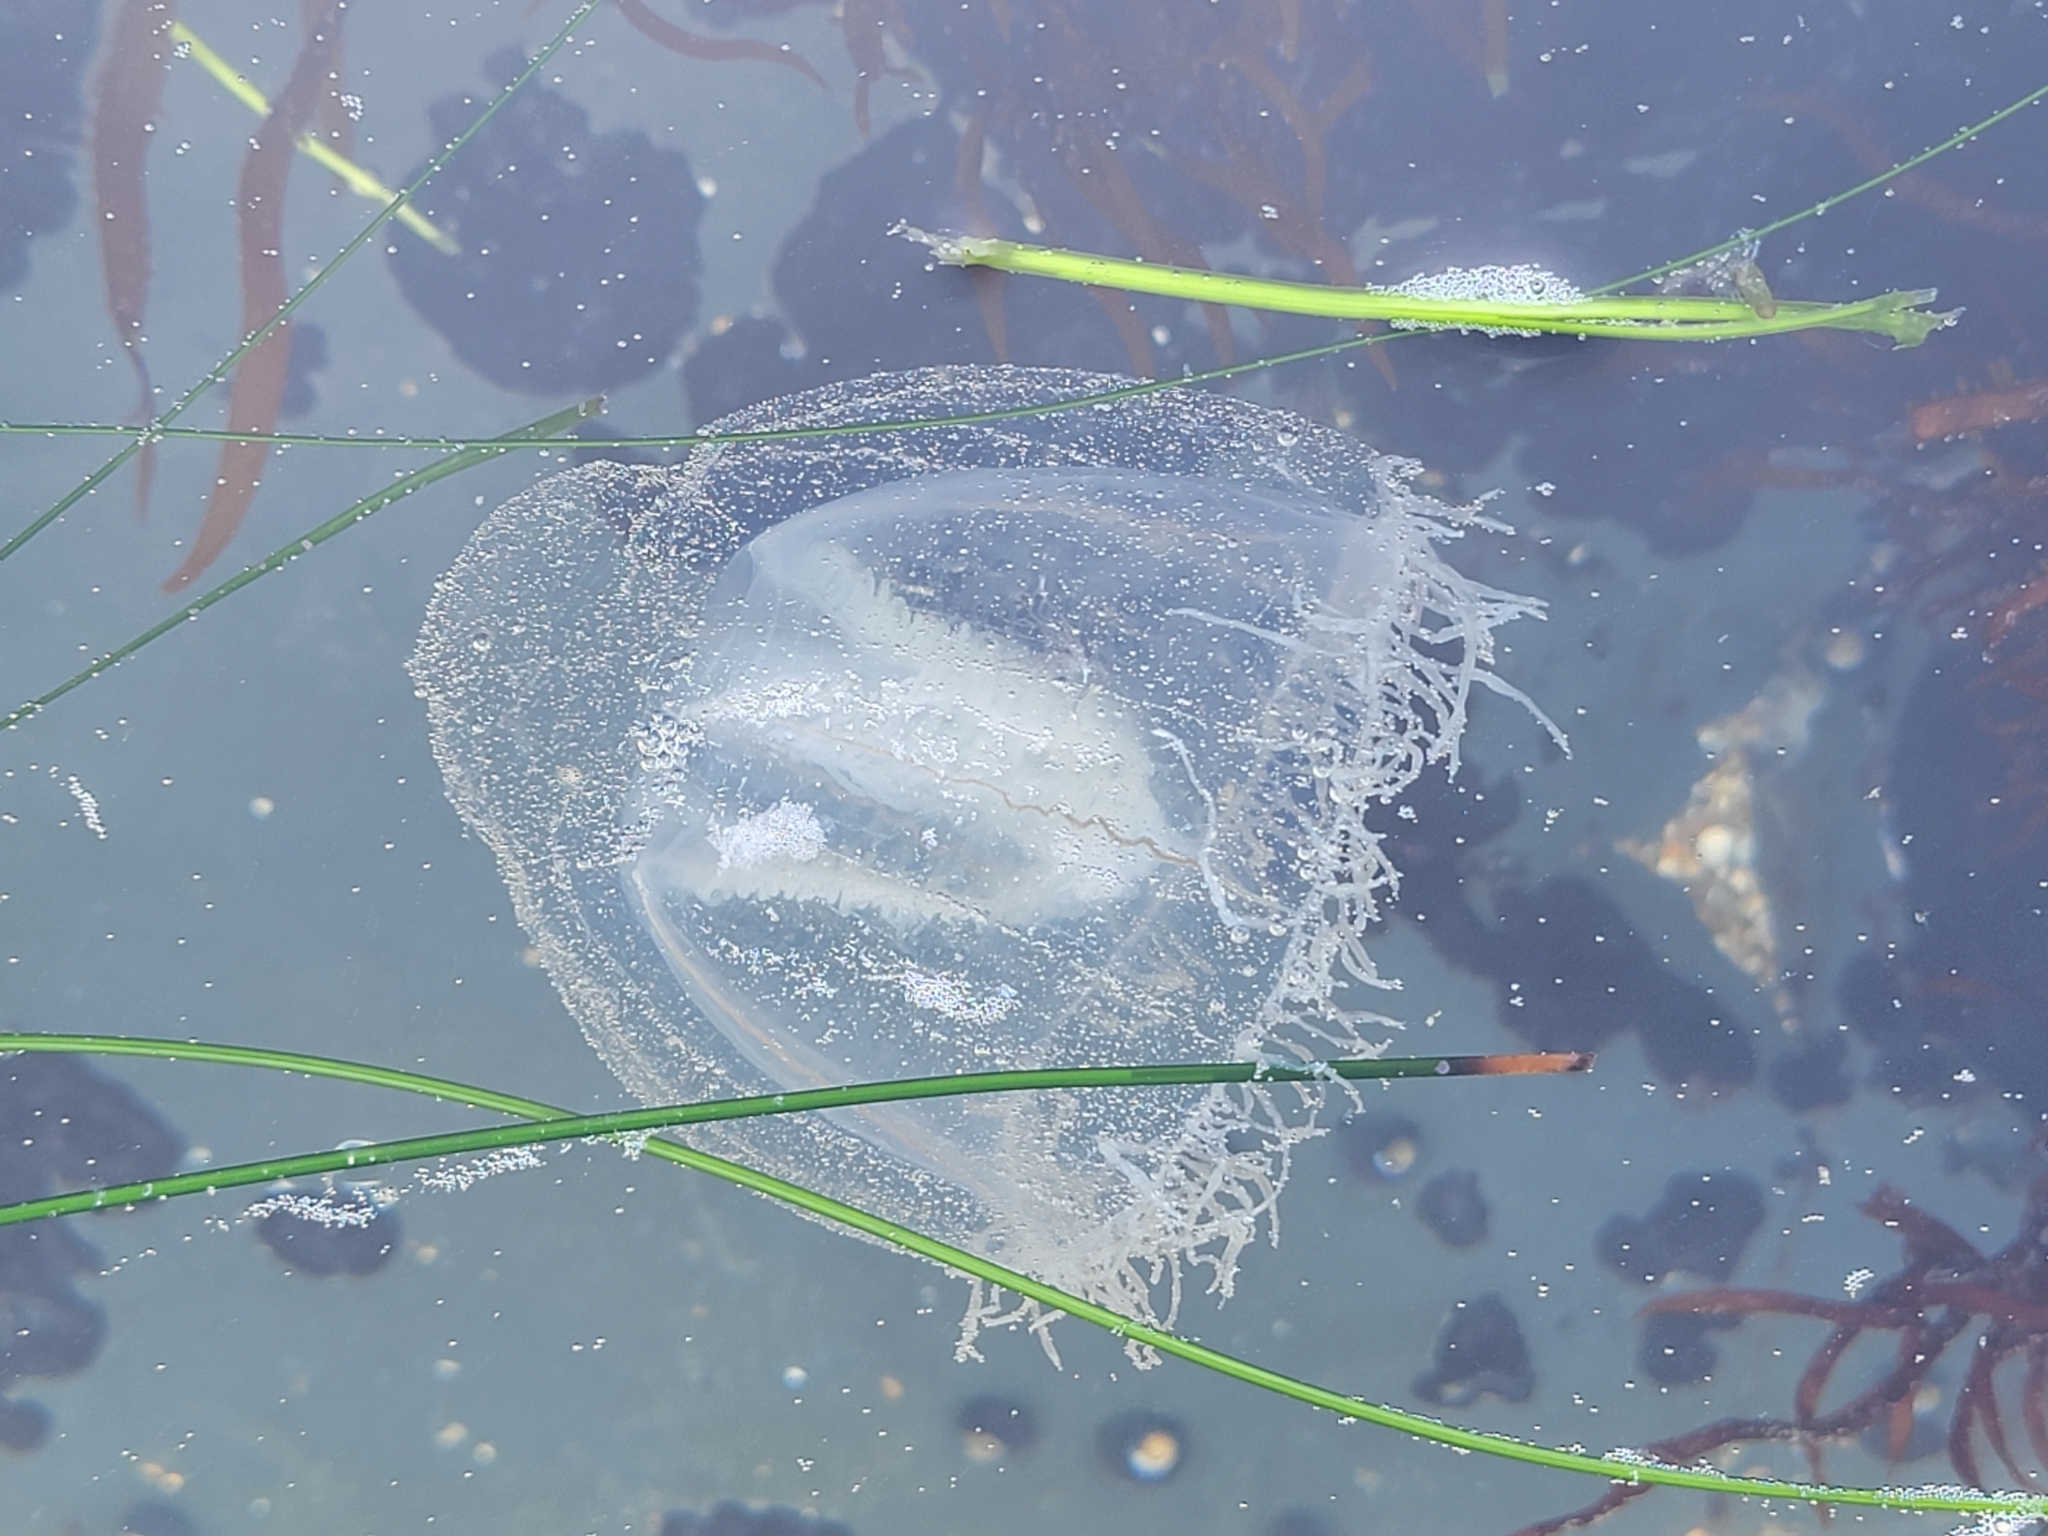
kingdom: Animalia
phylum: Cnidaria
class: Hydrozoa
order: Anthoathecata
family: Corynidae
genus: Scrippsia
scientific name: Scrippsia pacifica
